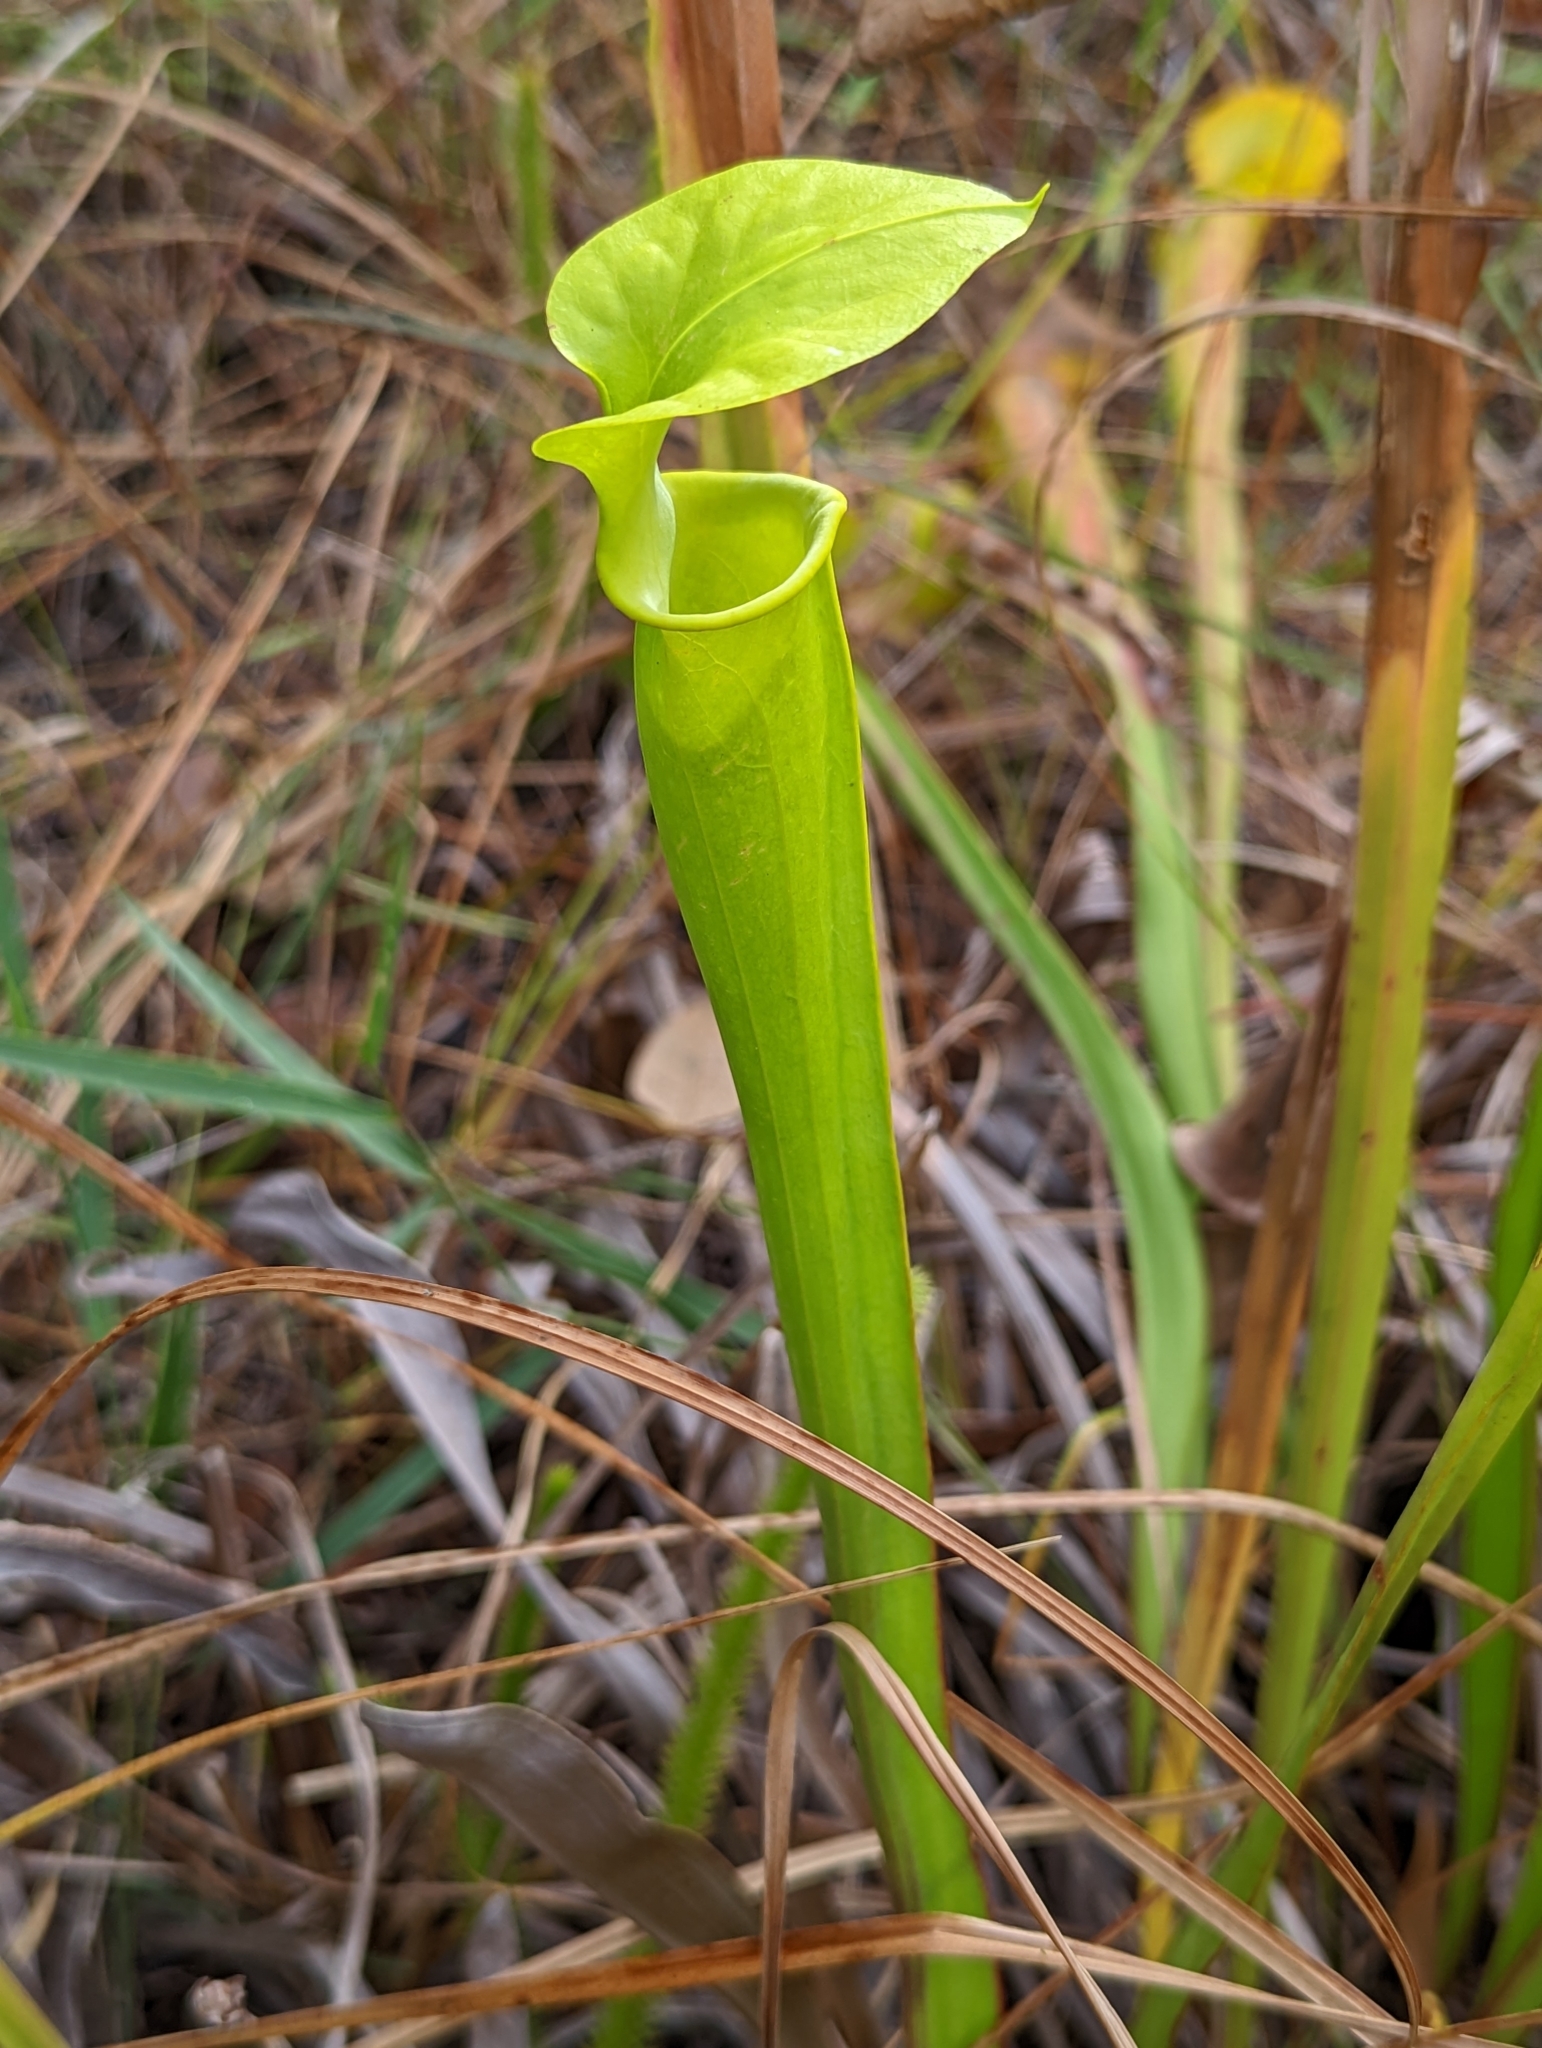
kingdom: Plantae
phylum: Tracheophyta
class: Magnoliopsida
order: Ericales
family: Sarraceniaceae
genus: Sarracenia
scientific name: Sarracenia flava
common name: Trumpets
